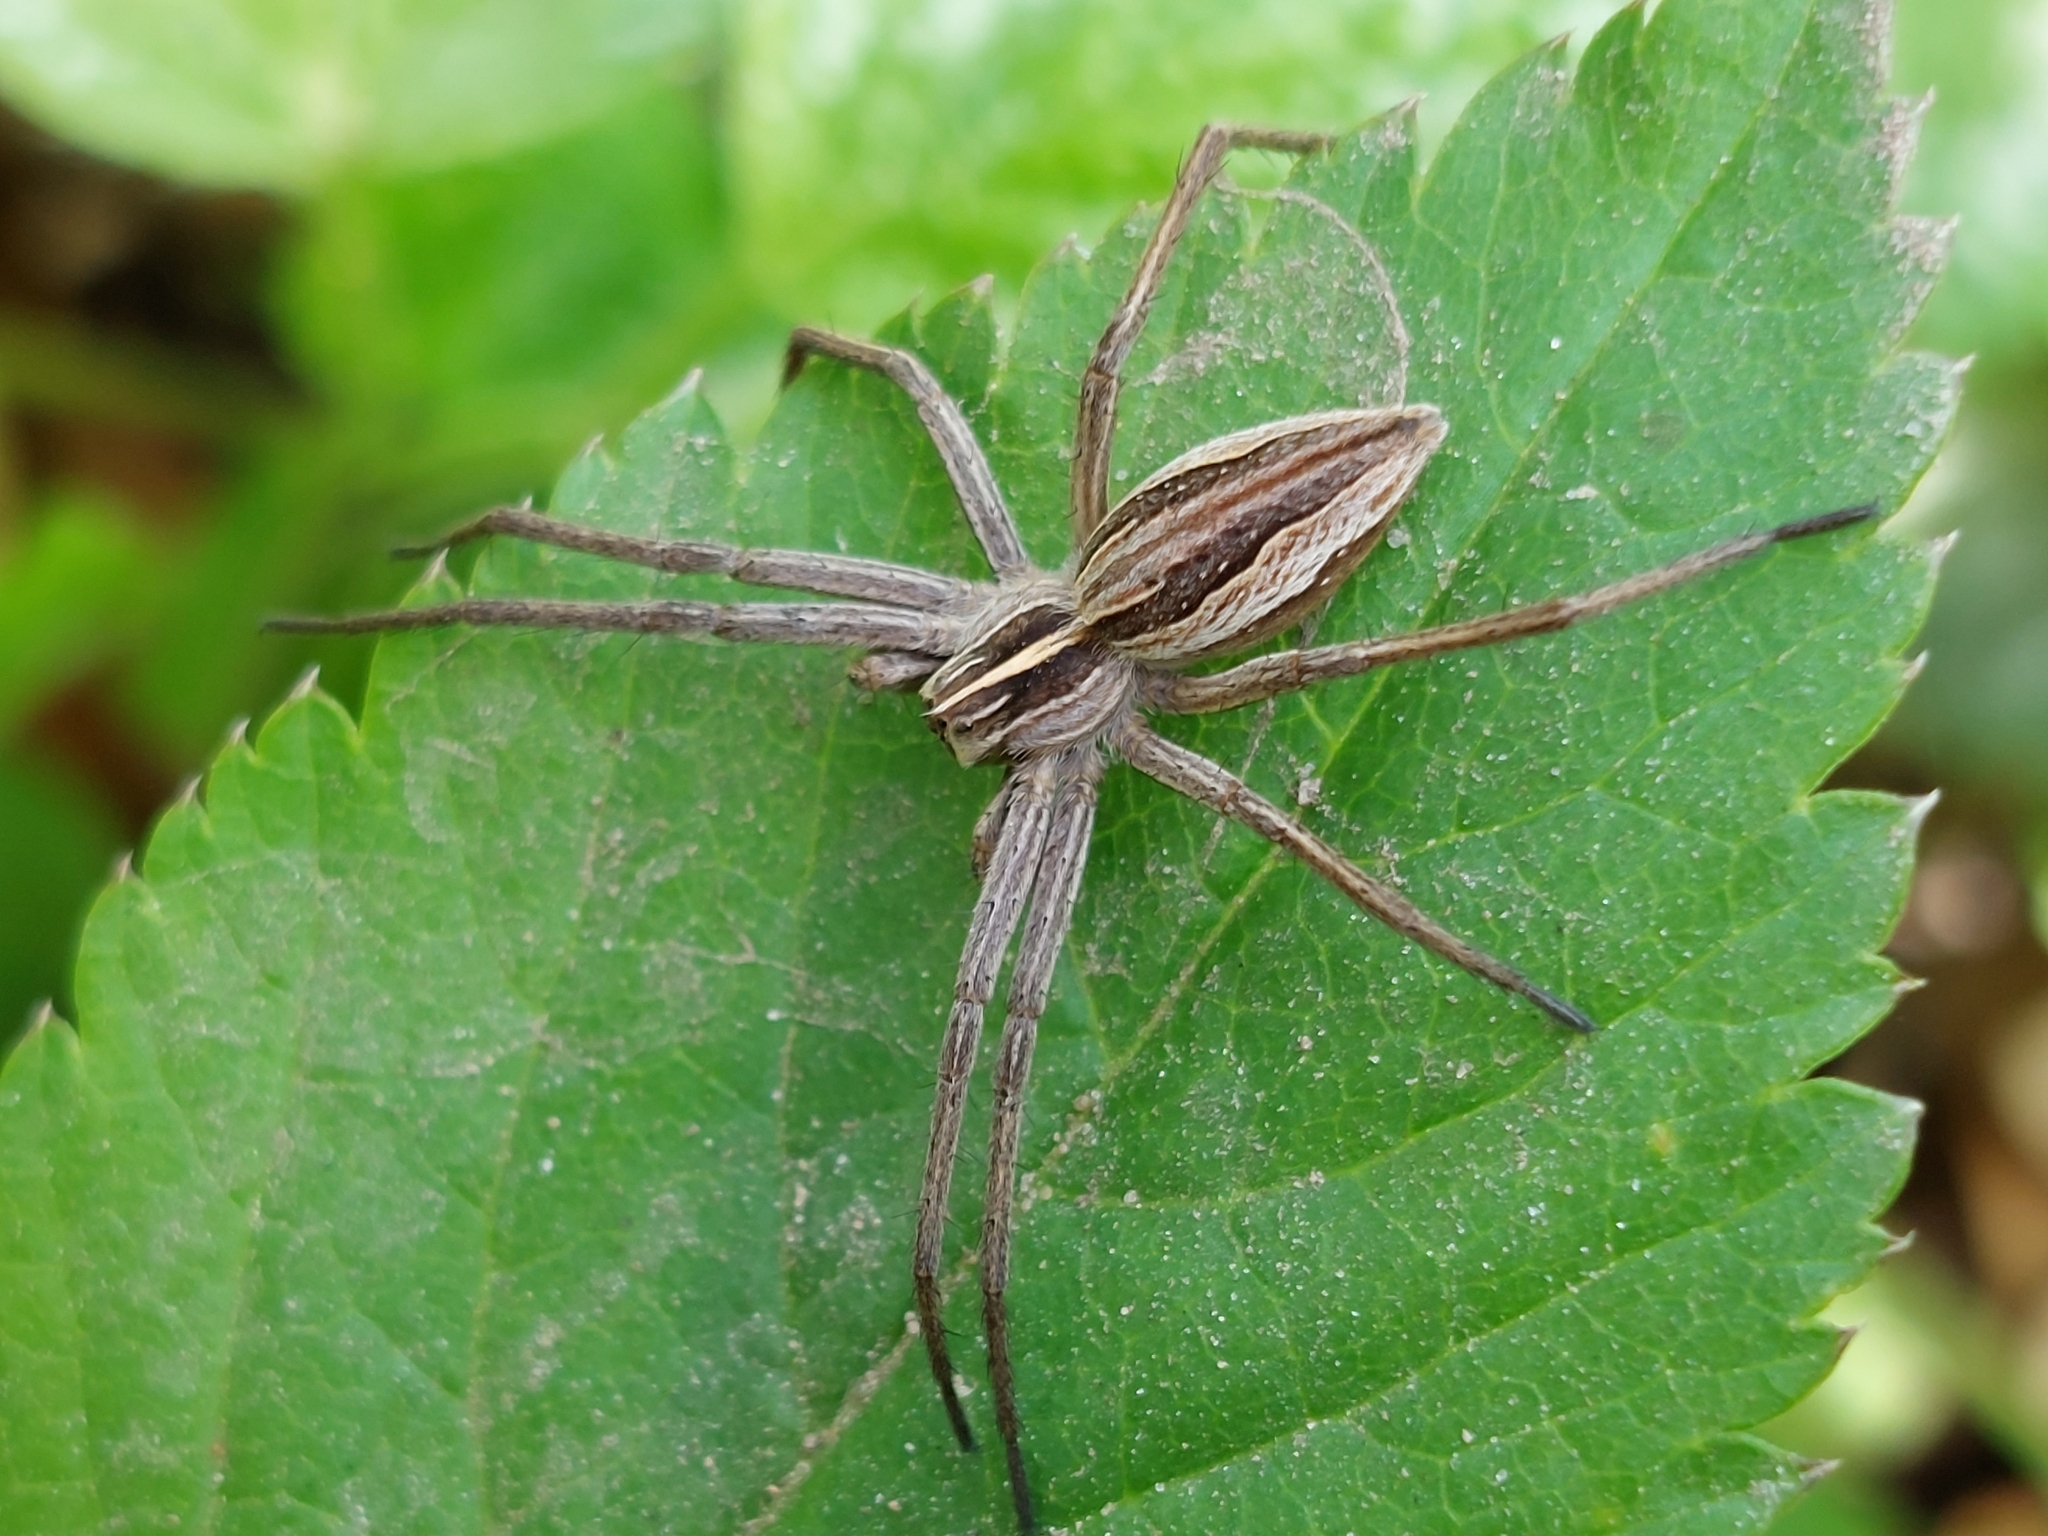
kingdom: Animalia
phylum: Arthropoda
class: Arachnida
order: Araneae
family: Pisauridae
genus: Pisaura
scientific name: Pisaura mirabilis
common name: Tent spider
